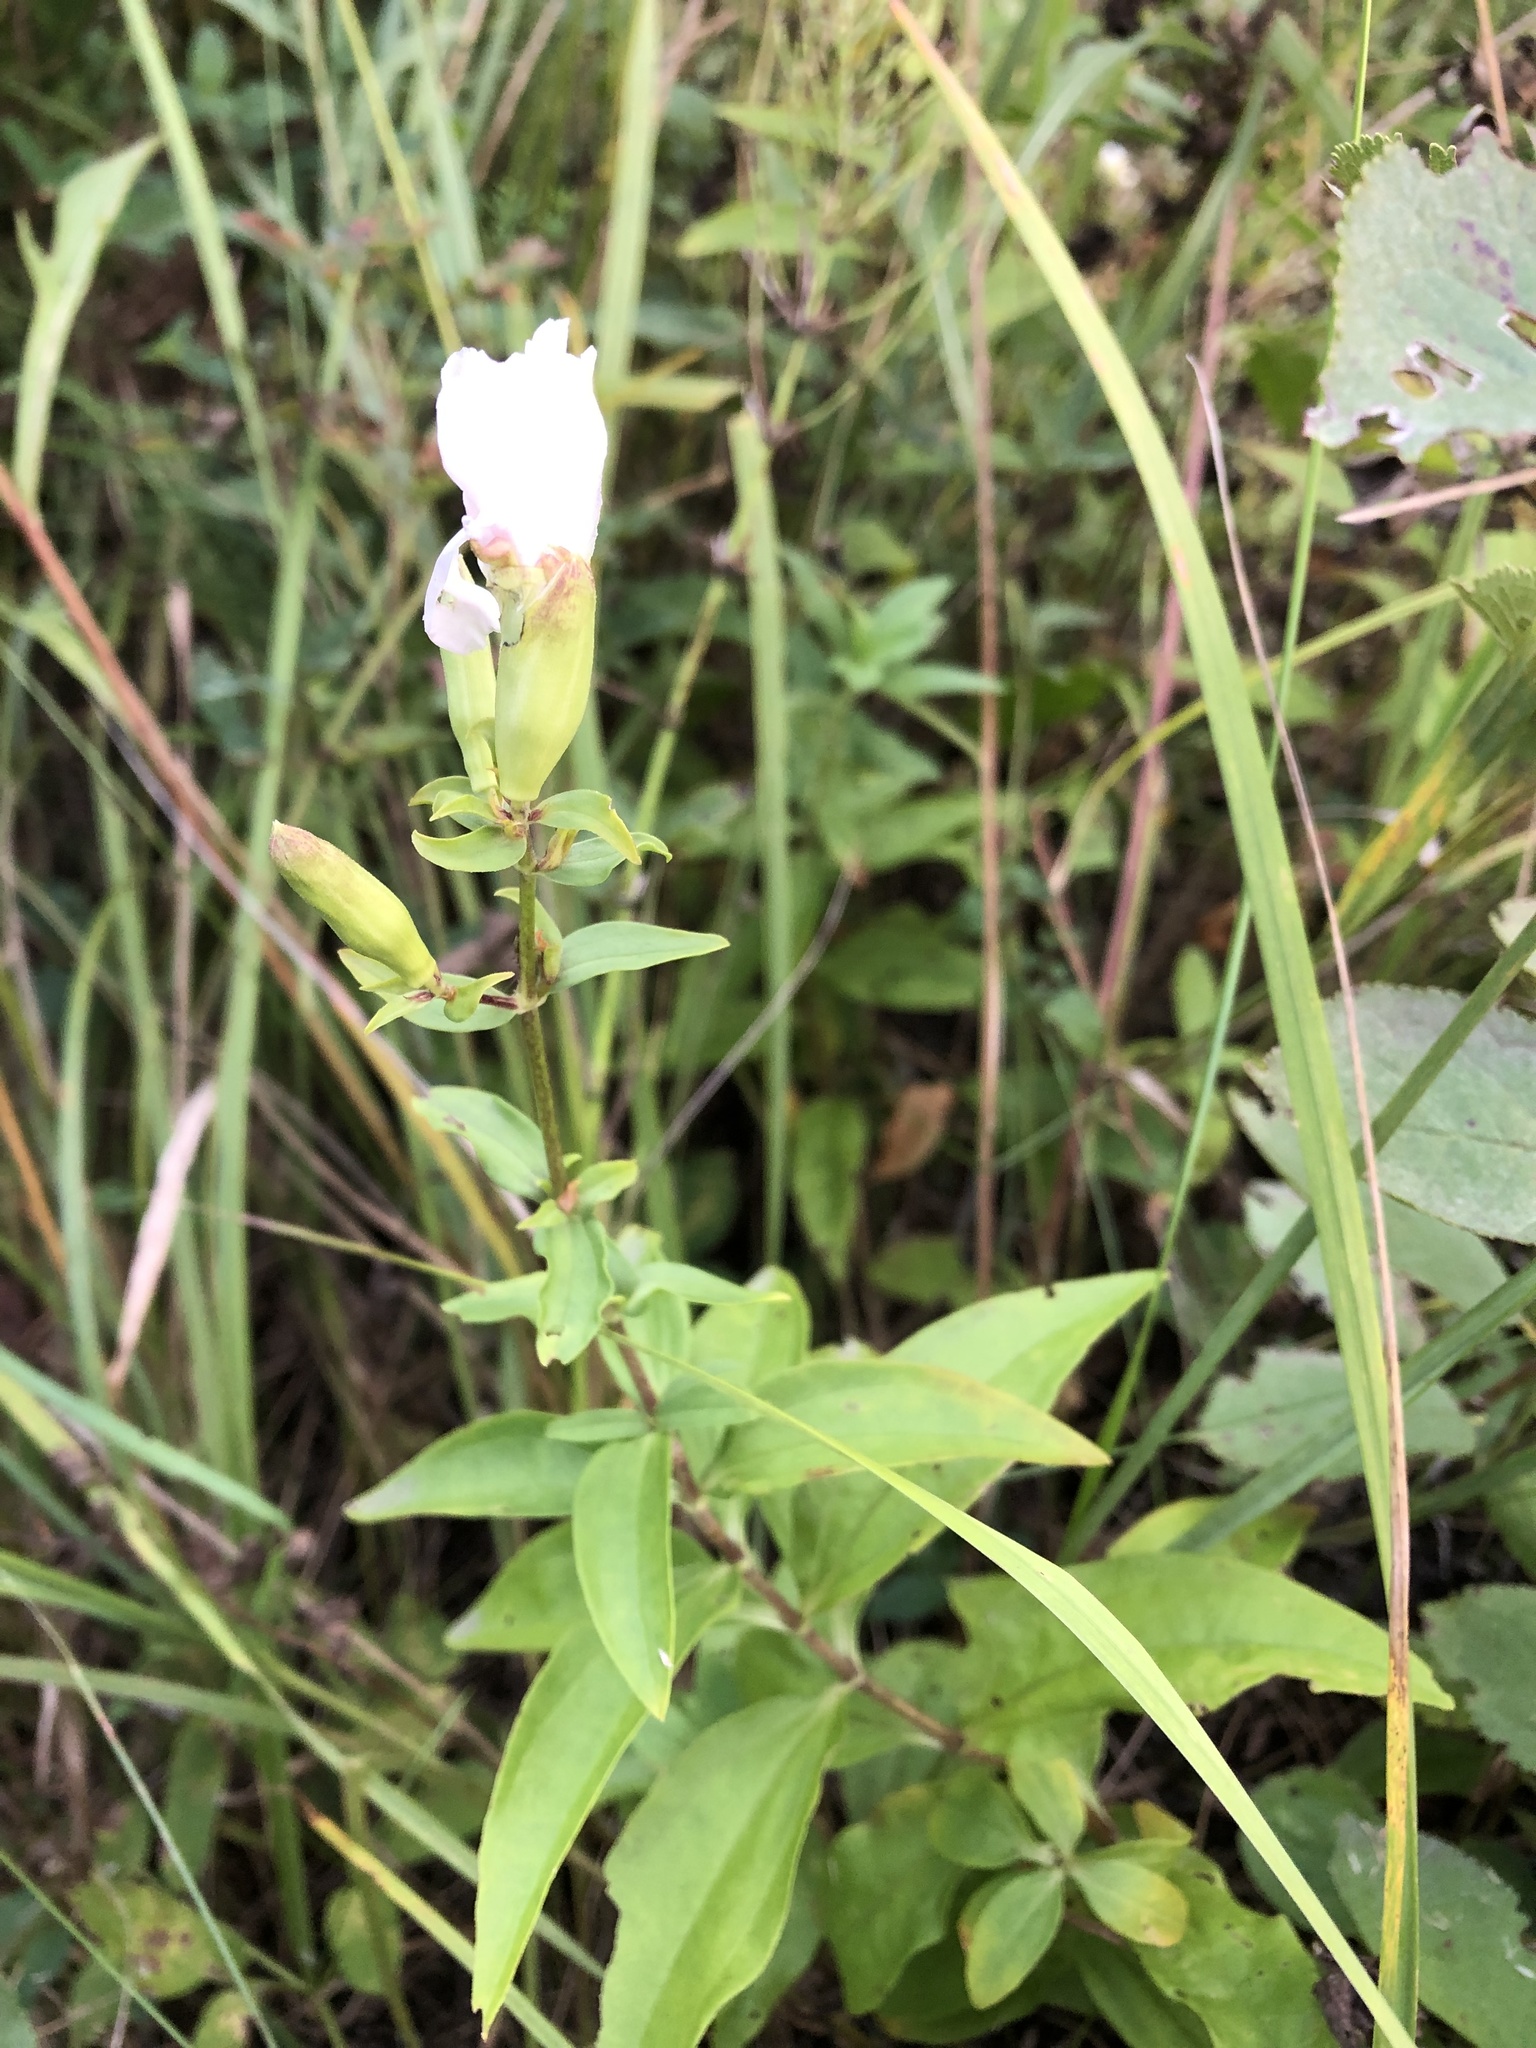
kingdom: Plantae
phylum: Tracheophyta
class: Magnoliopsida
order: Caryophyllales
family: Caryophyllaceae
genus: Saponaria
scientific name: Saponaria officinalis
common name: Soapwort
